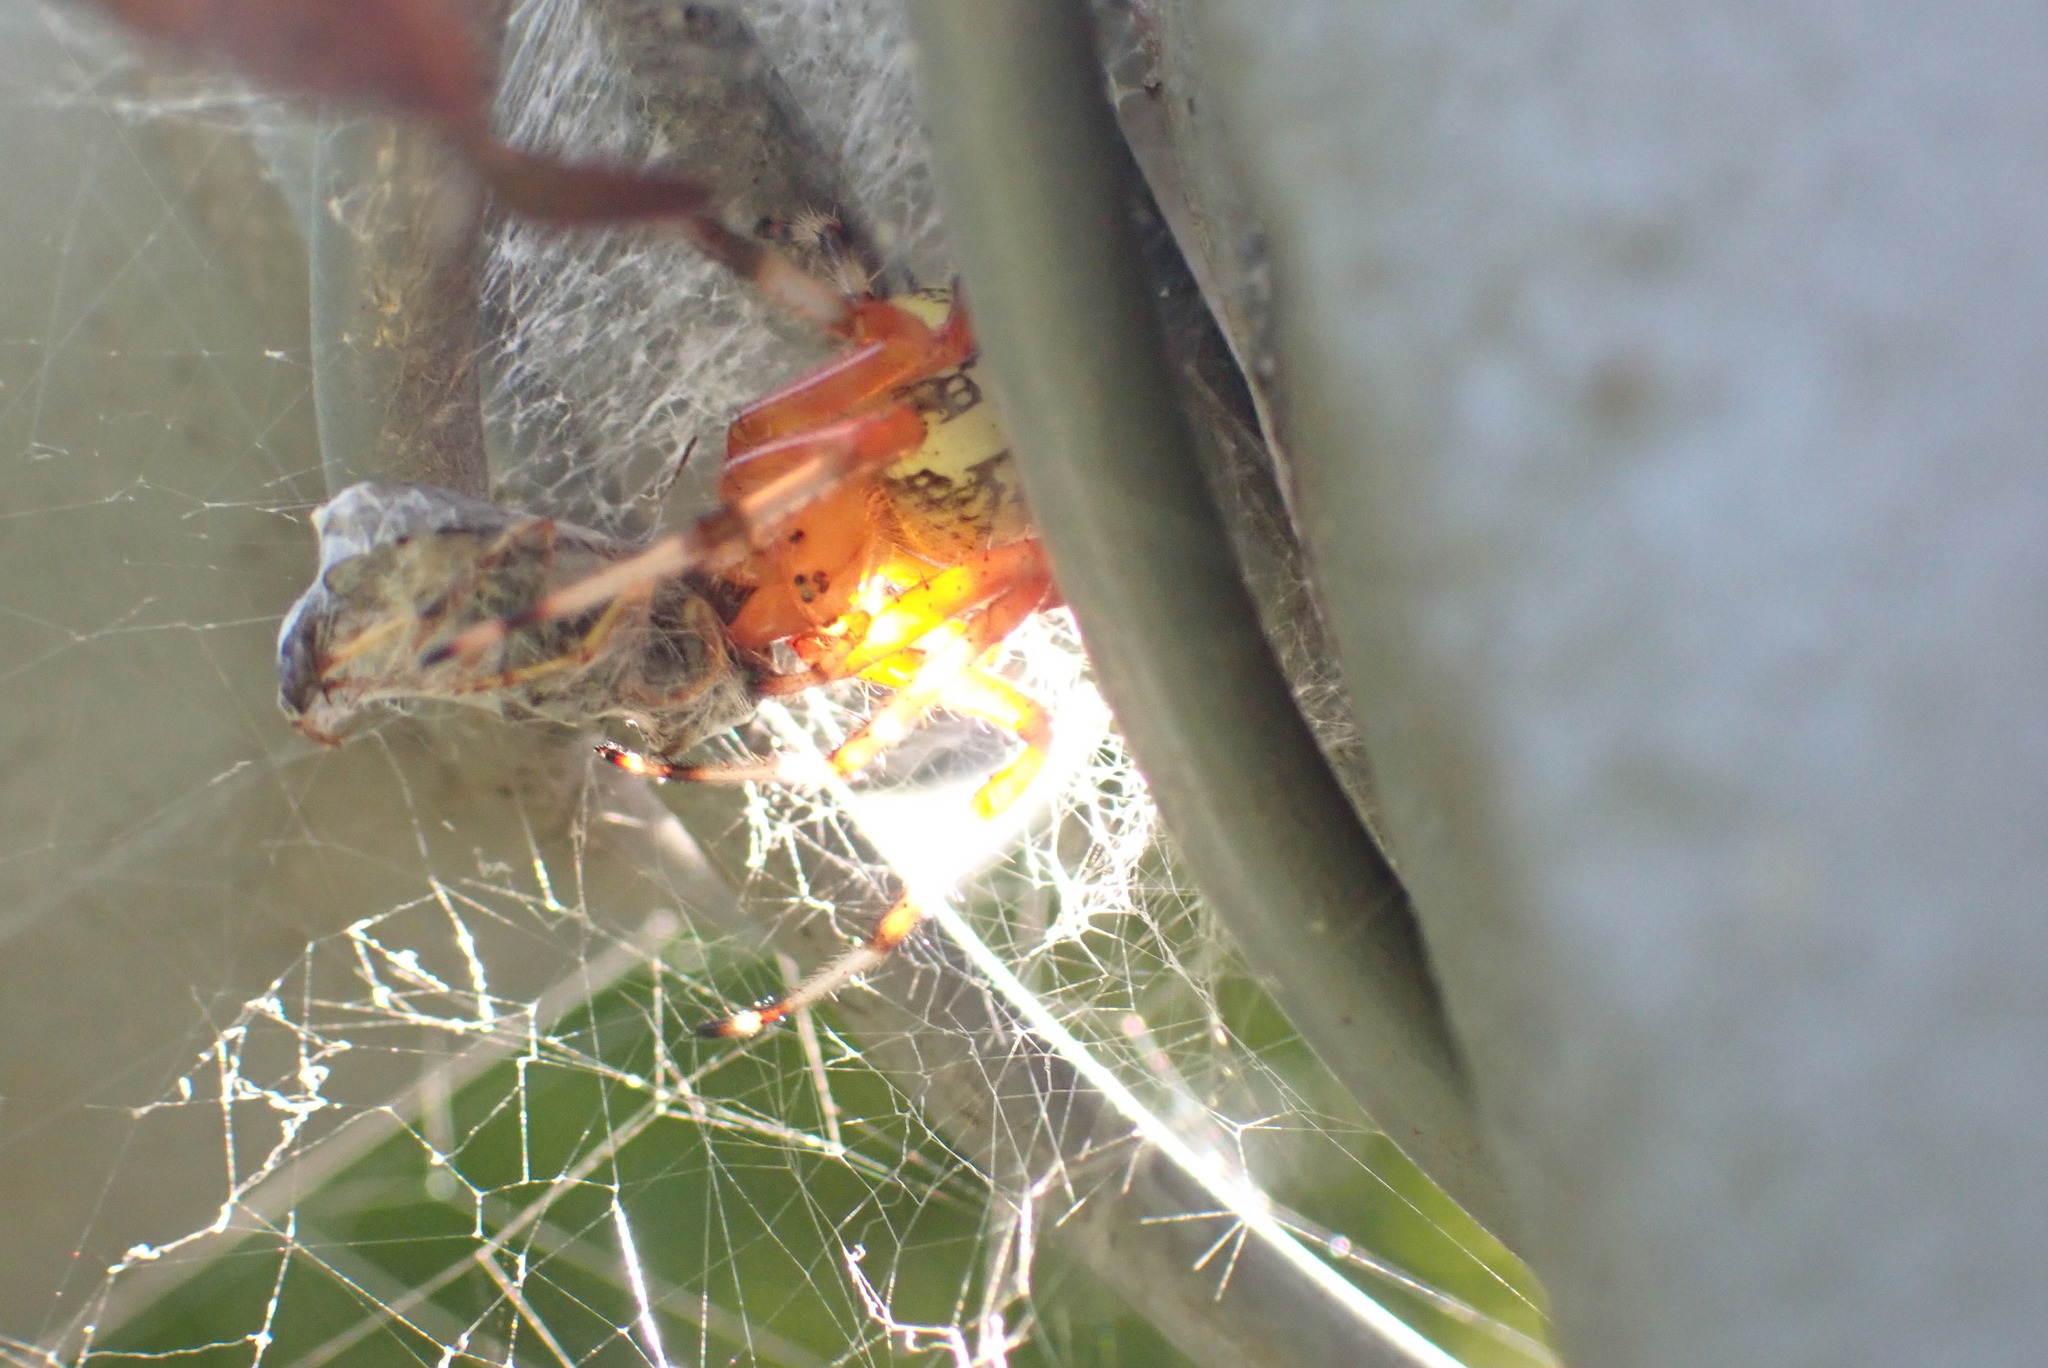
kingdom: Animalia
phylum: Arthropoda
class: Arachnida
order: Araneae
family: Araneidae
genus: Araneus
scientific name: Araneus marmoreus
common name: Marbled orbweaver
